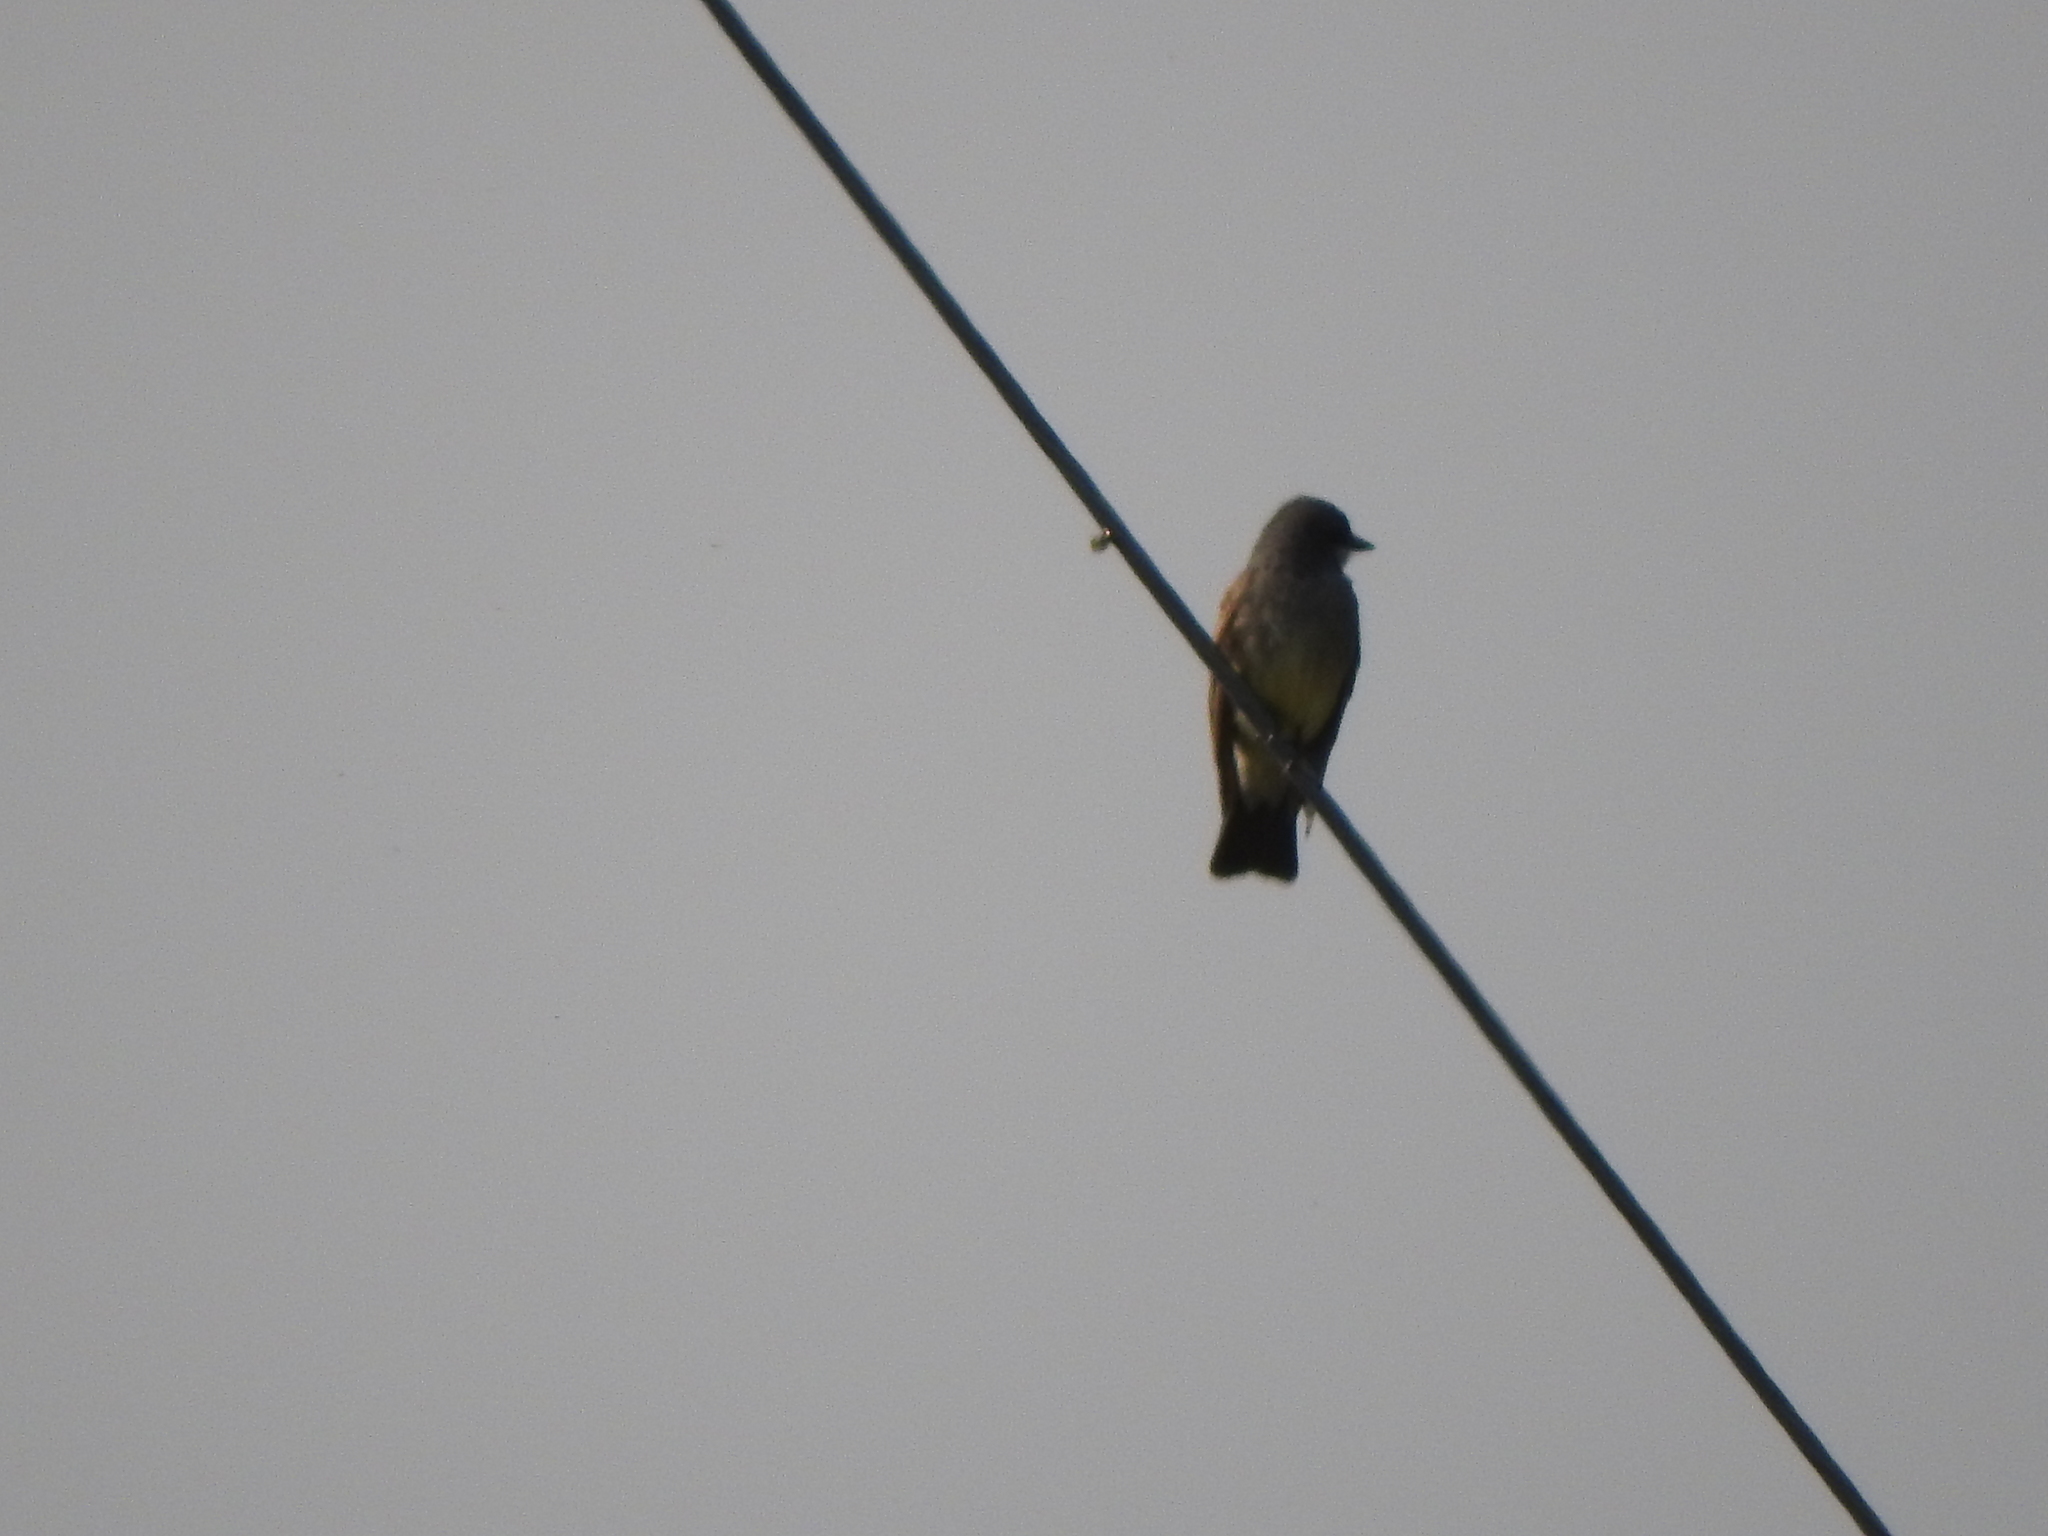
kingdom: Animalia
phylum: Chordata
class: Aves
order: Passeriformes
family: Tyrannidae
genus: Tyrannus
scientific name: Tyrannus vociferans
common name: Cassin's kingbird
